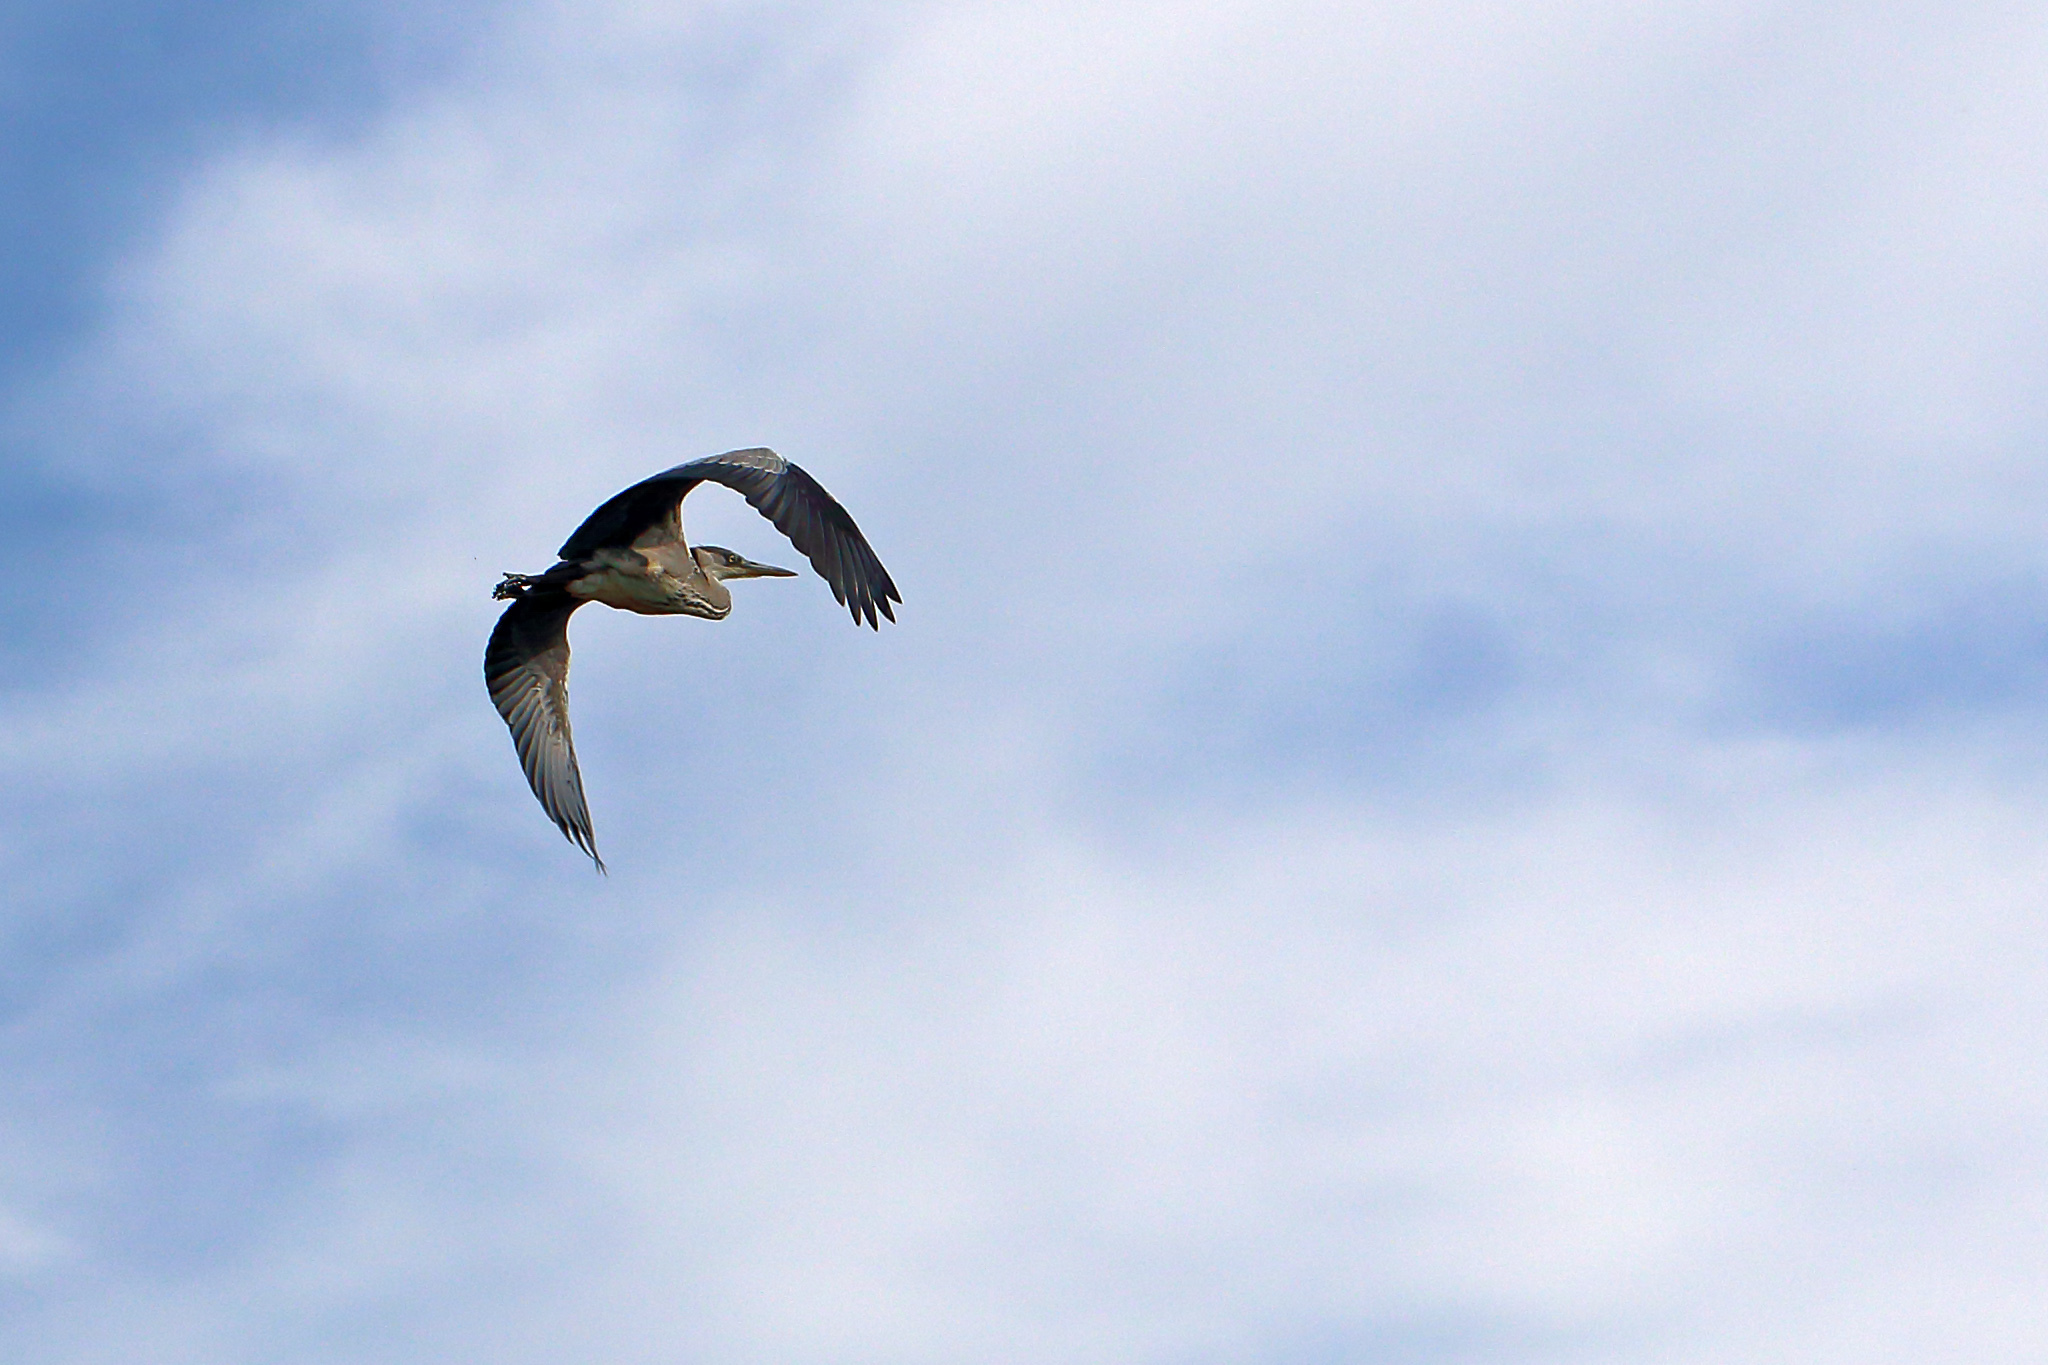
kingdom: Animalia
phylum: Chordata
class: Aves
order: Pelecaniformes
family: Ardeidae
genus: Ardea
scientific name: Ardea cinerea
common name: Grey heron
